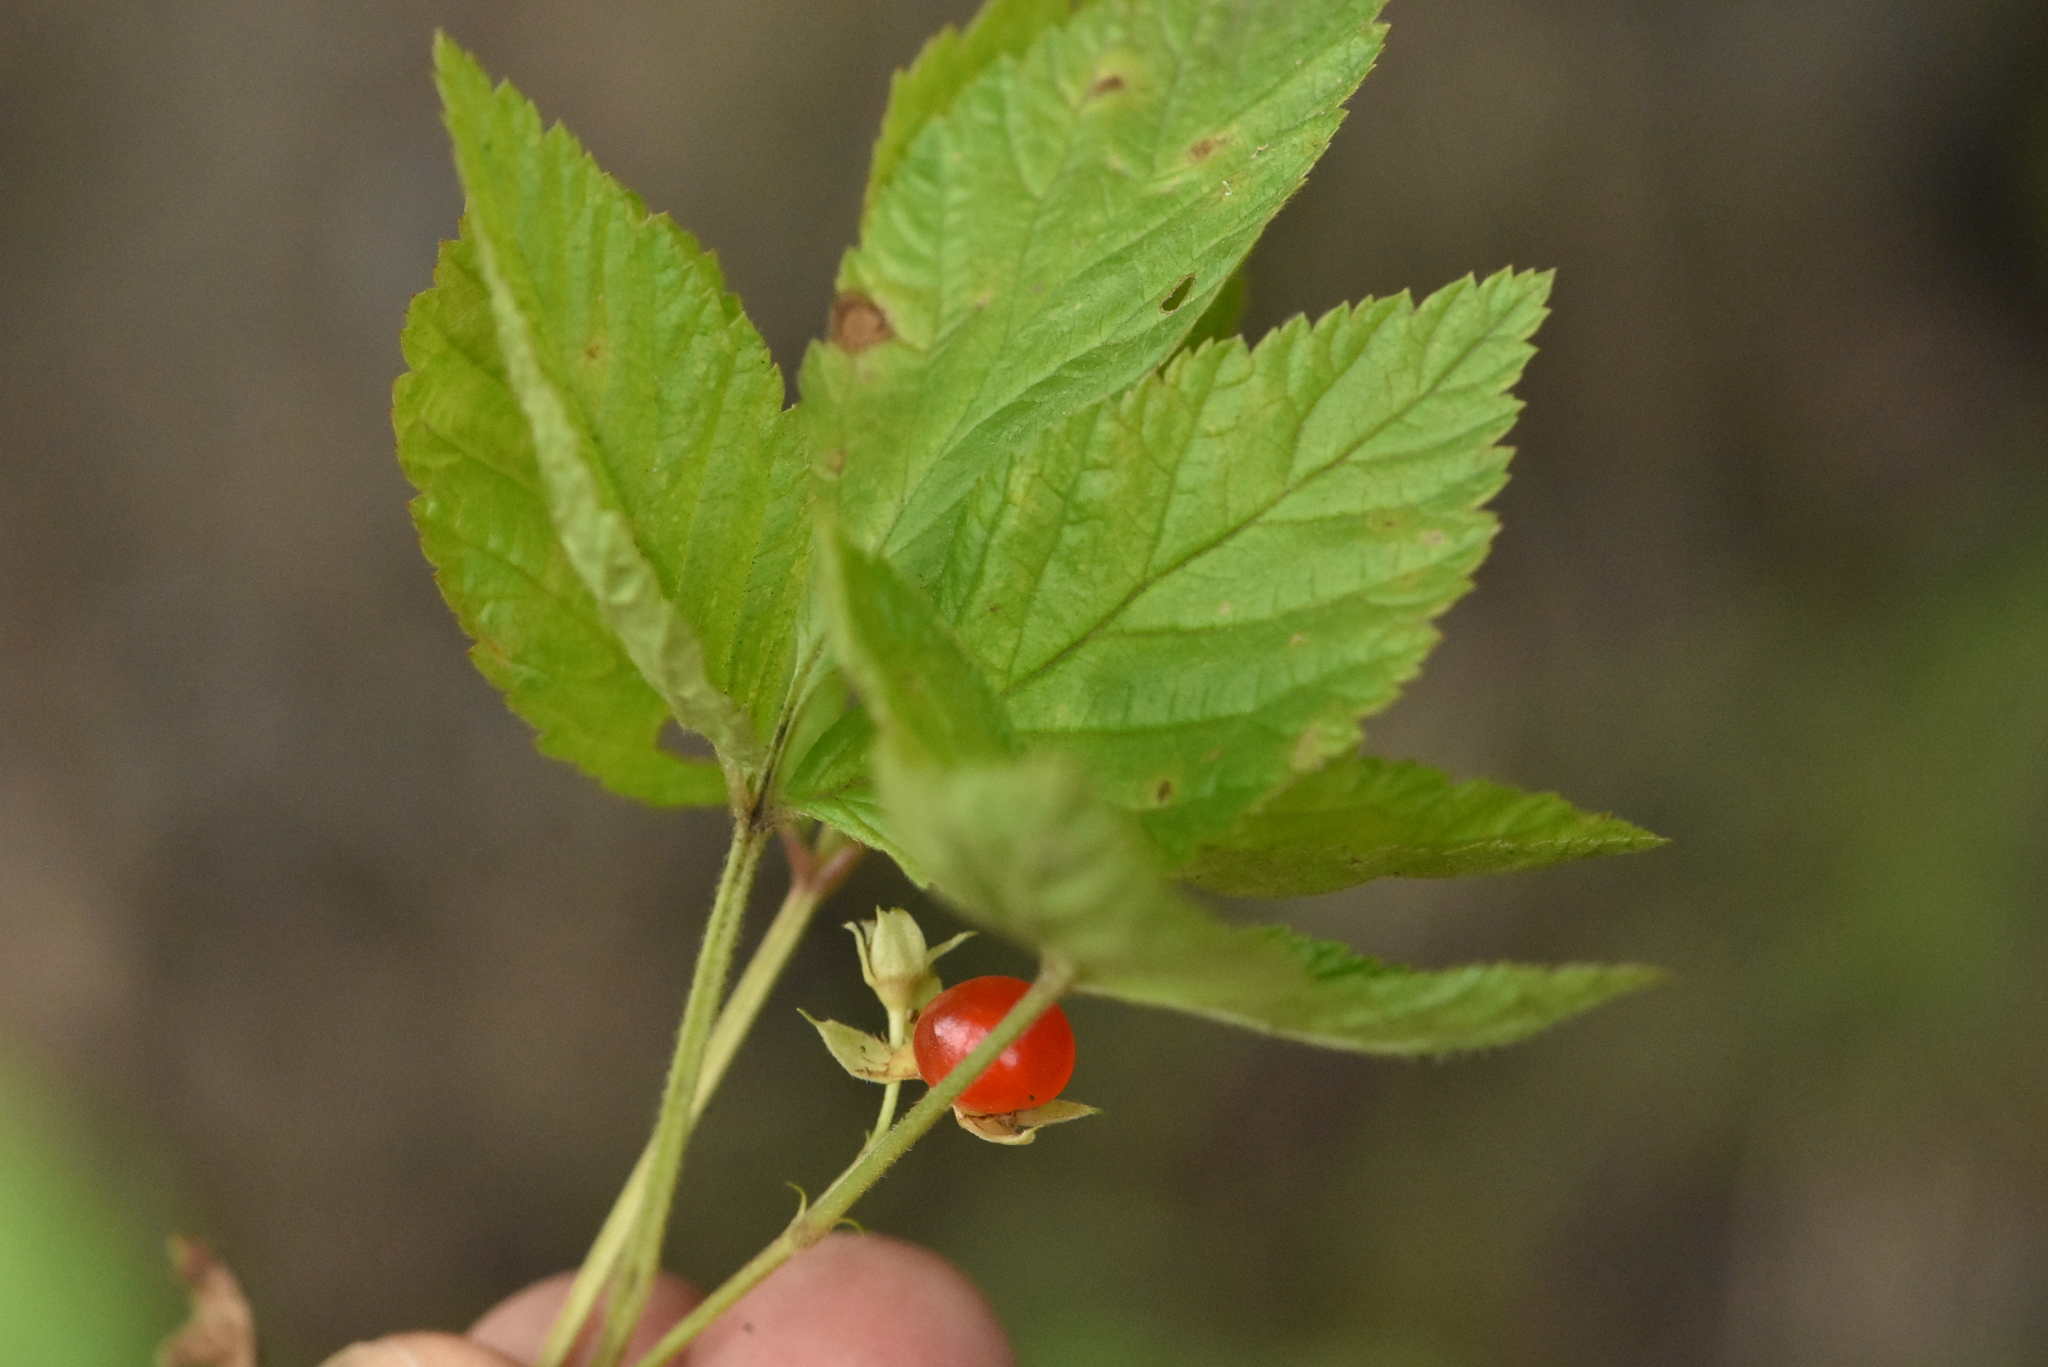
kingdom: Plantae
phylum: Tracheophyta
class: Magnoliopsida
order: Rosales
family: Rosaceae
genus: Rubus
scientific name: Rubus saxatilis
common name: Stone bramble
